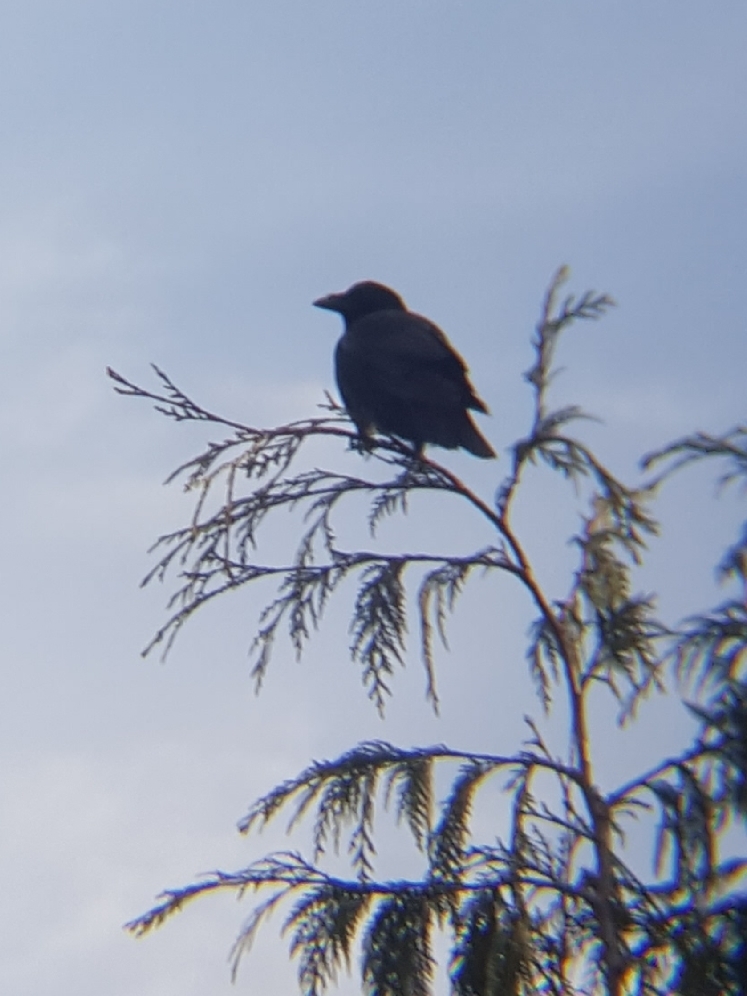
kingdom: Animalia
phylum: Chordata
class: Aves
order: Passeriformes
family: Corvidae
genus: Corvus
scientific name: Corvus brachyrhynchos
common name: American crow
